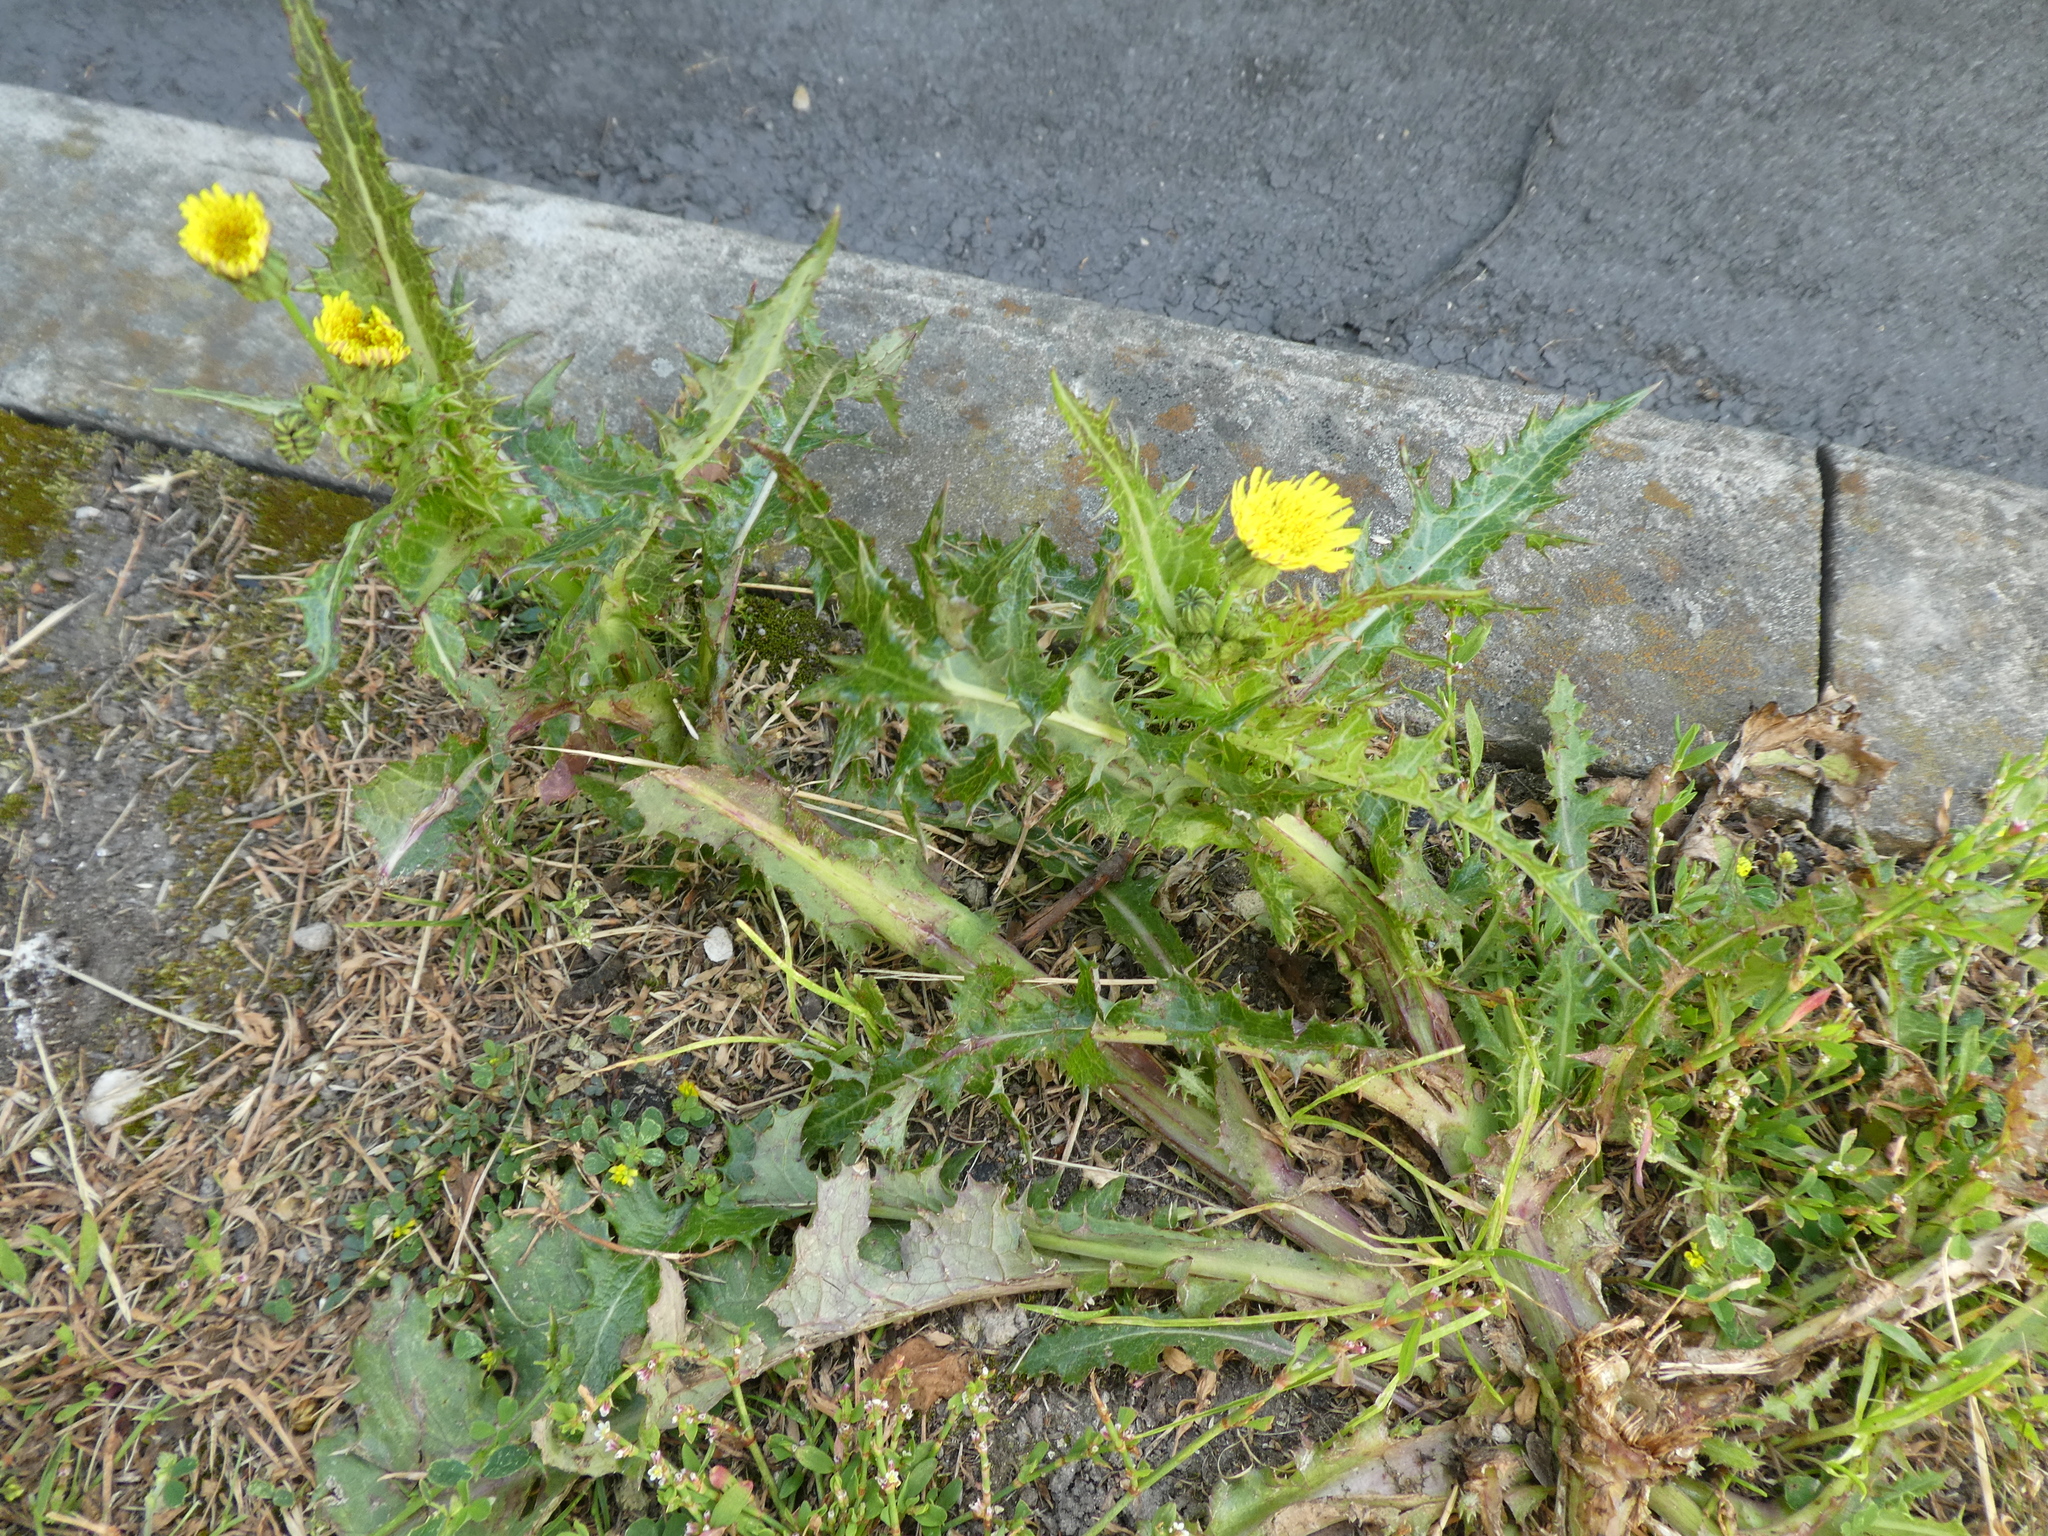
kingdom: Plantae
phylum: Tracheophyta
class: Magnoliopsida
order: Asterales
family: Asteraceae
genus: Sonchus
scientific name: Sonchus asper
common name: Prickly sow-thistle
